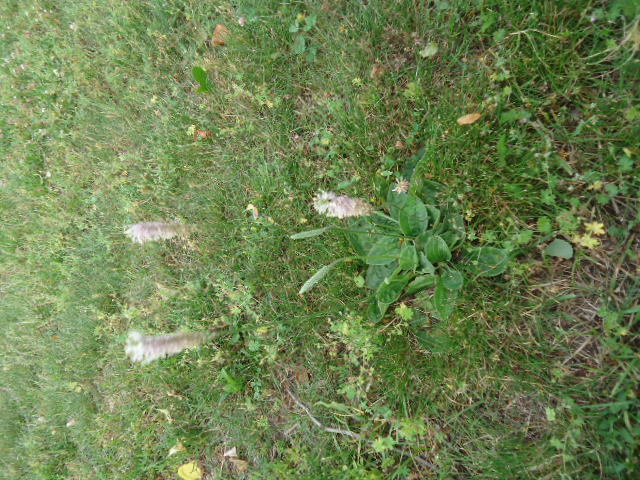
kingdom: Plantae
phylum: Tracheophyta
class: Magnoliopsida
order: Lamiales
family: Plantaginaceae
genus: Plantago
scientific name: Plantago media
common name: Hoary plantain
